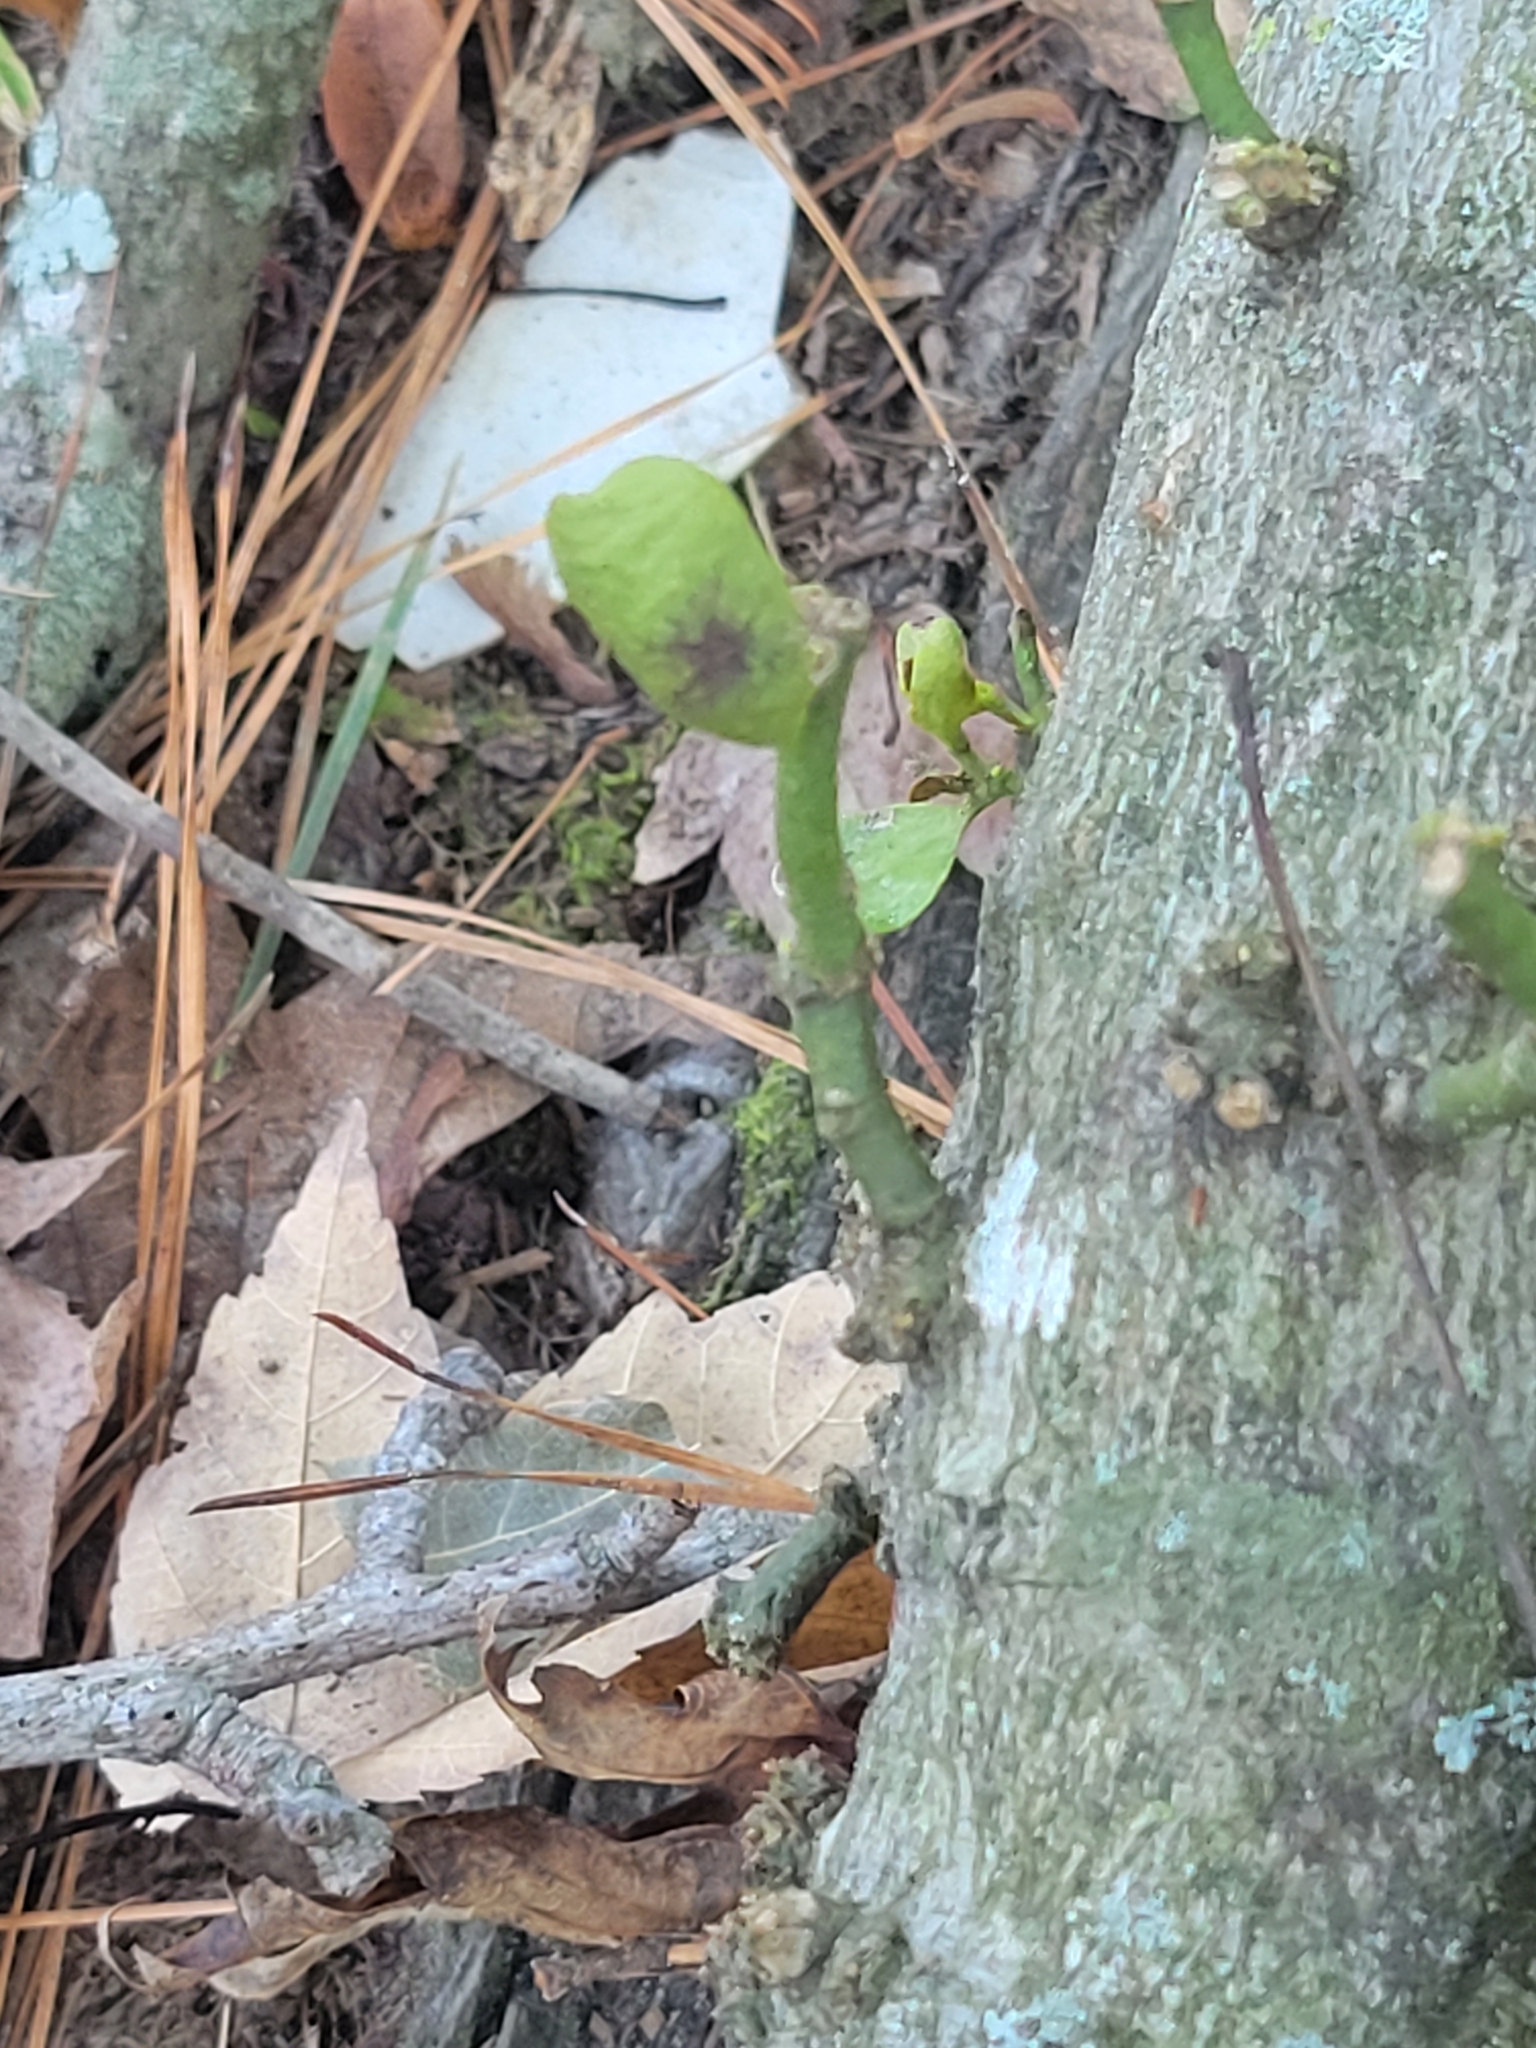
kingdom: Plantae
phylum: Tracheophyta
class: Magnoliopsida
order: Santalales
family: Viscaceae
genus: Phoradendron
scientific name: Phoradendron leucarpum
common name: Pacific mistletoe
